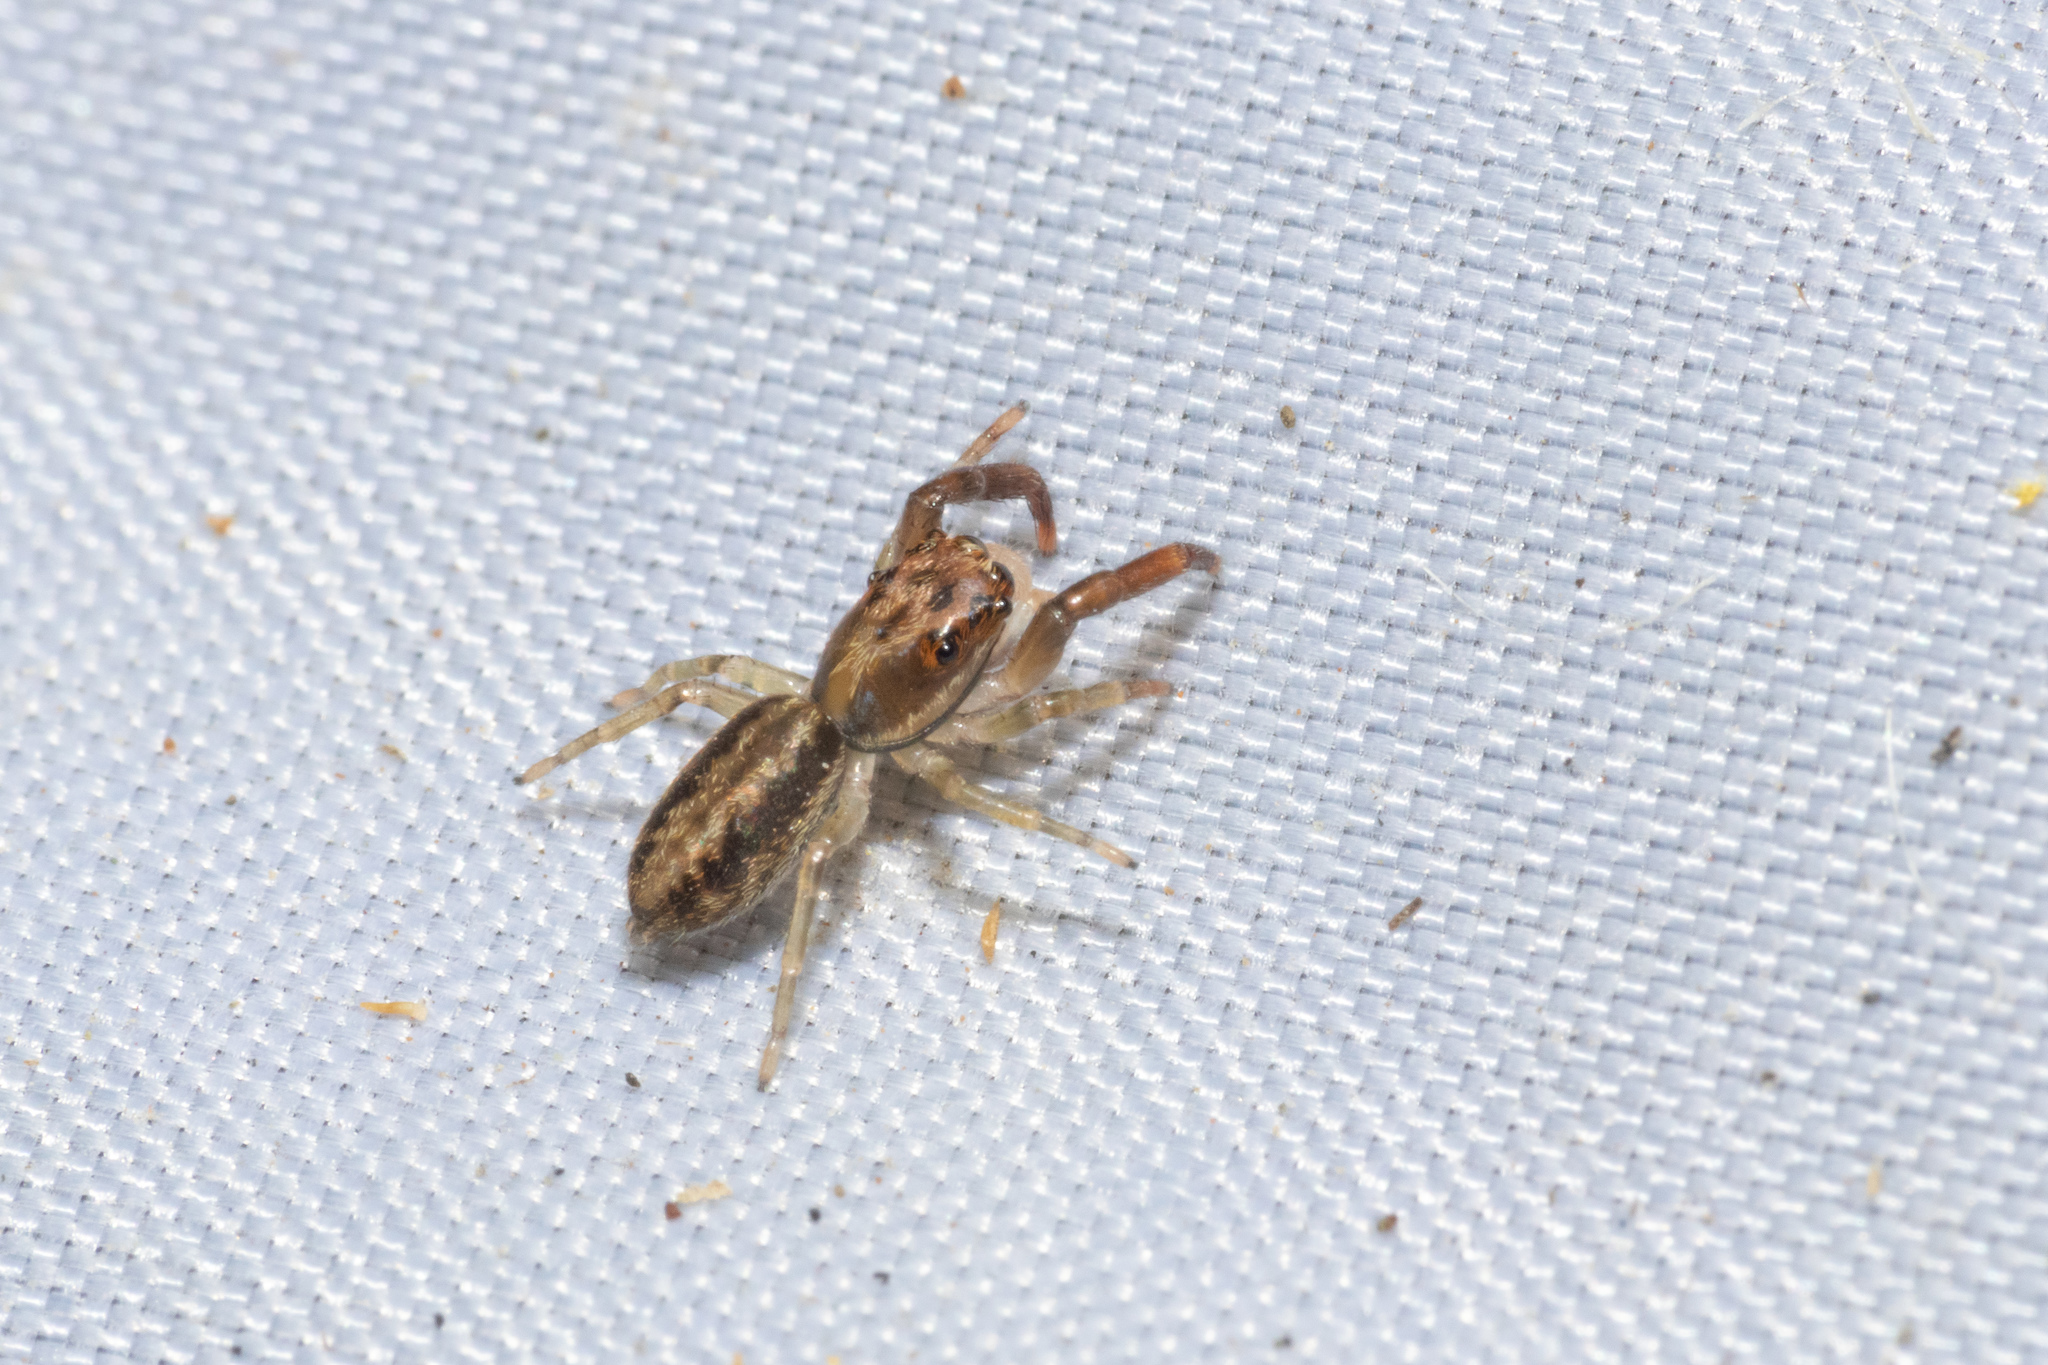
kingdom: Animalia
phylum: Arthropoda
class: Arachnida
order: Araneae
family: Salticidae
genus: Trite
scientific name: Trite mustilina
